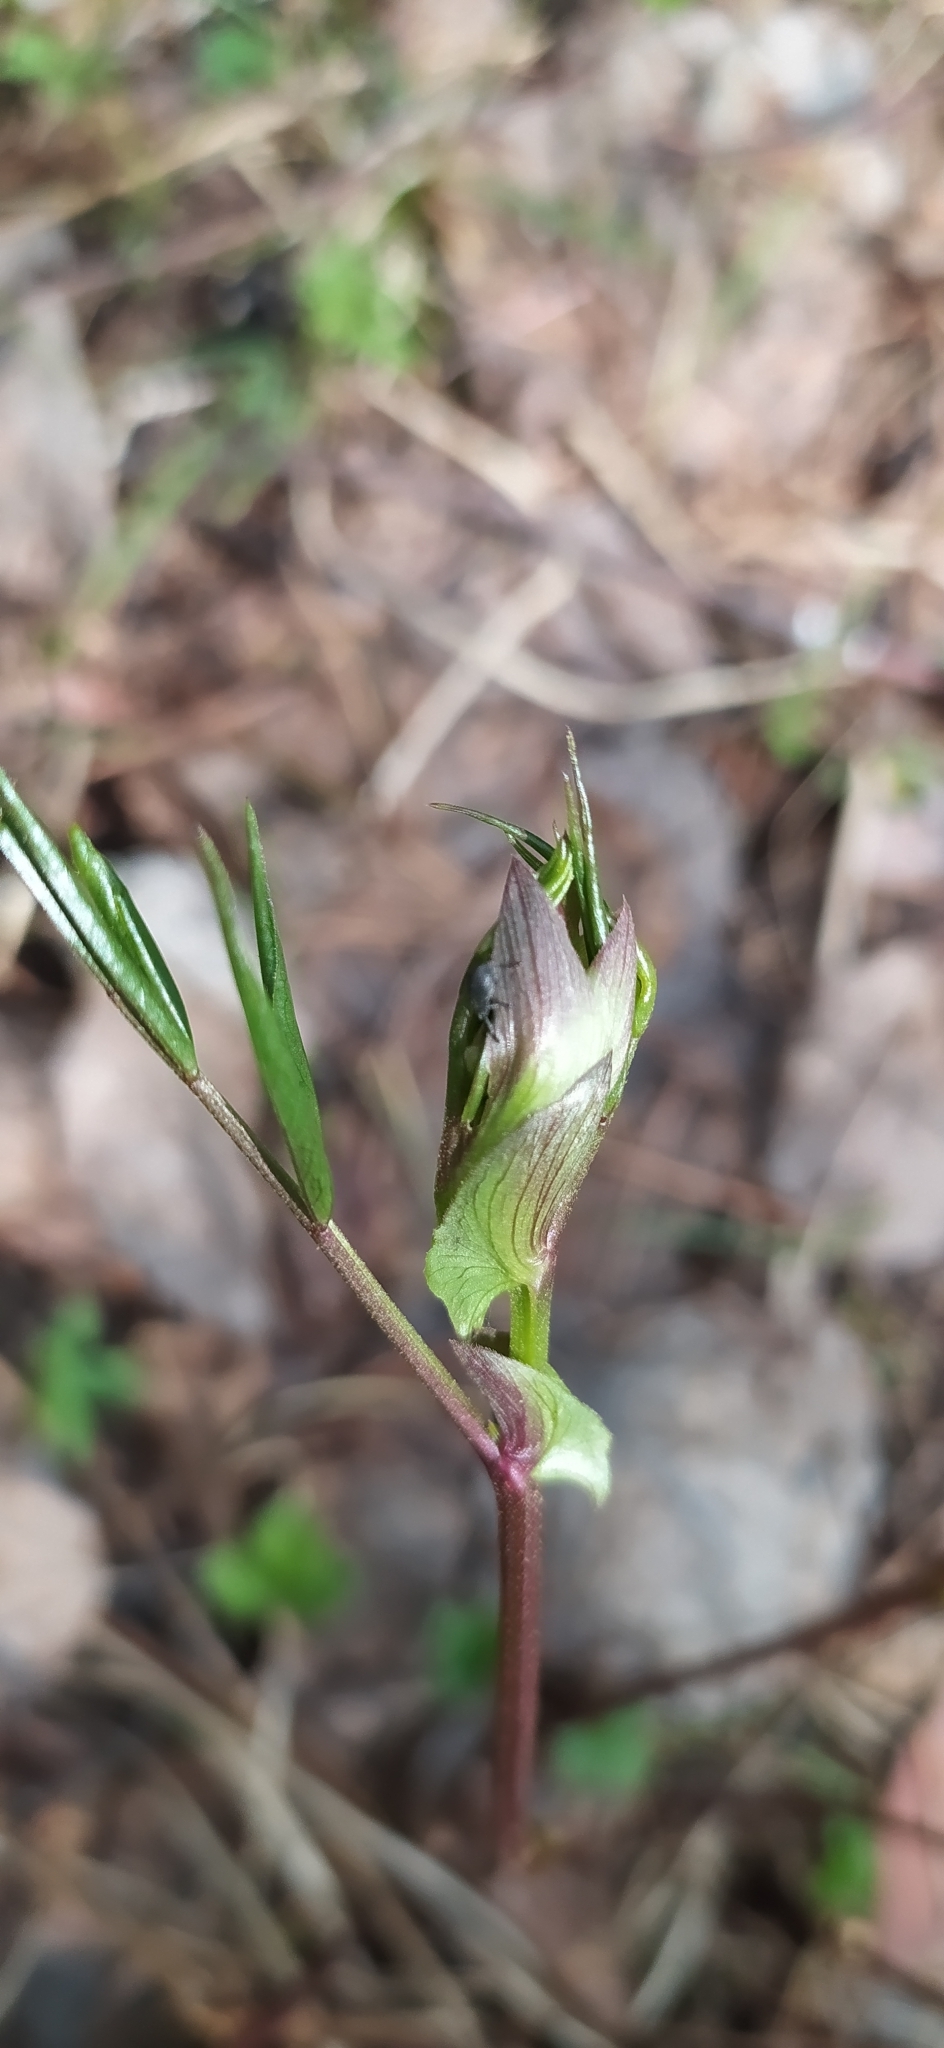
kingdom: Plantae
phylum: Tracheophyta
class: Magnoliopsida
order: Fabales
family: Fabaceae
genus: Lathyrus
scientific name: Lathyrus vernus
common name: Spring pea
